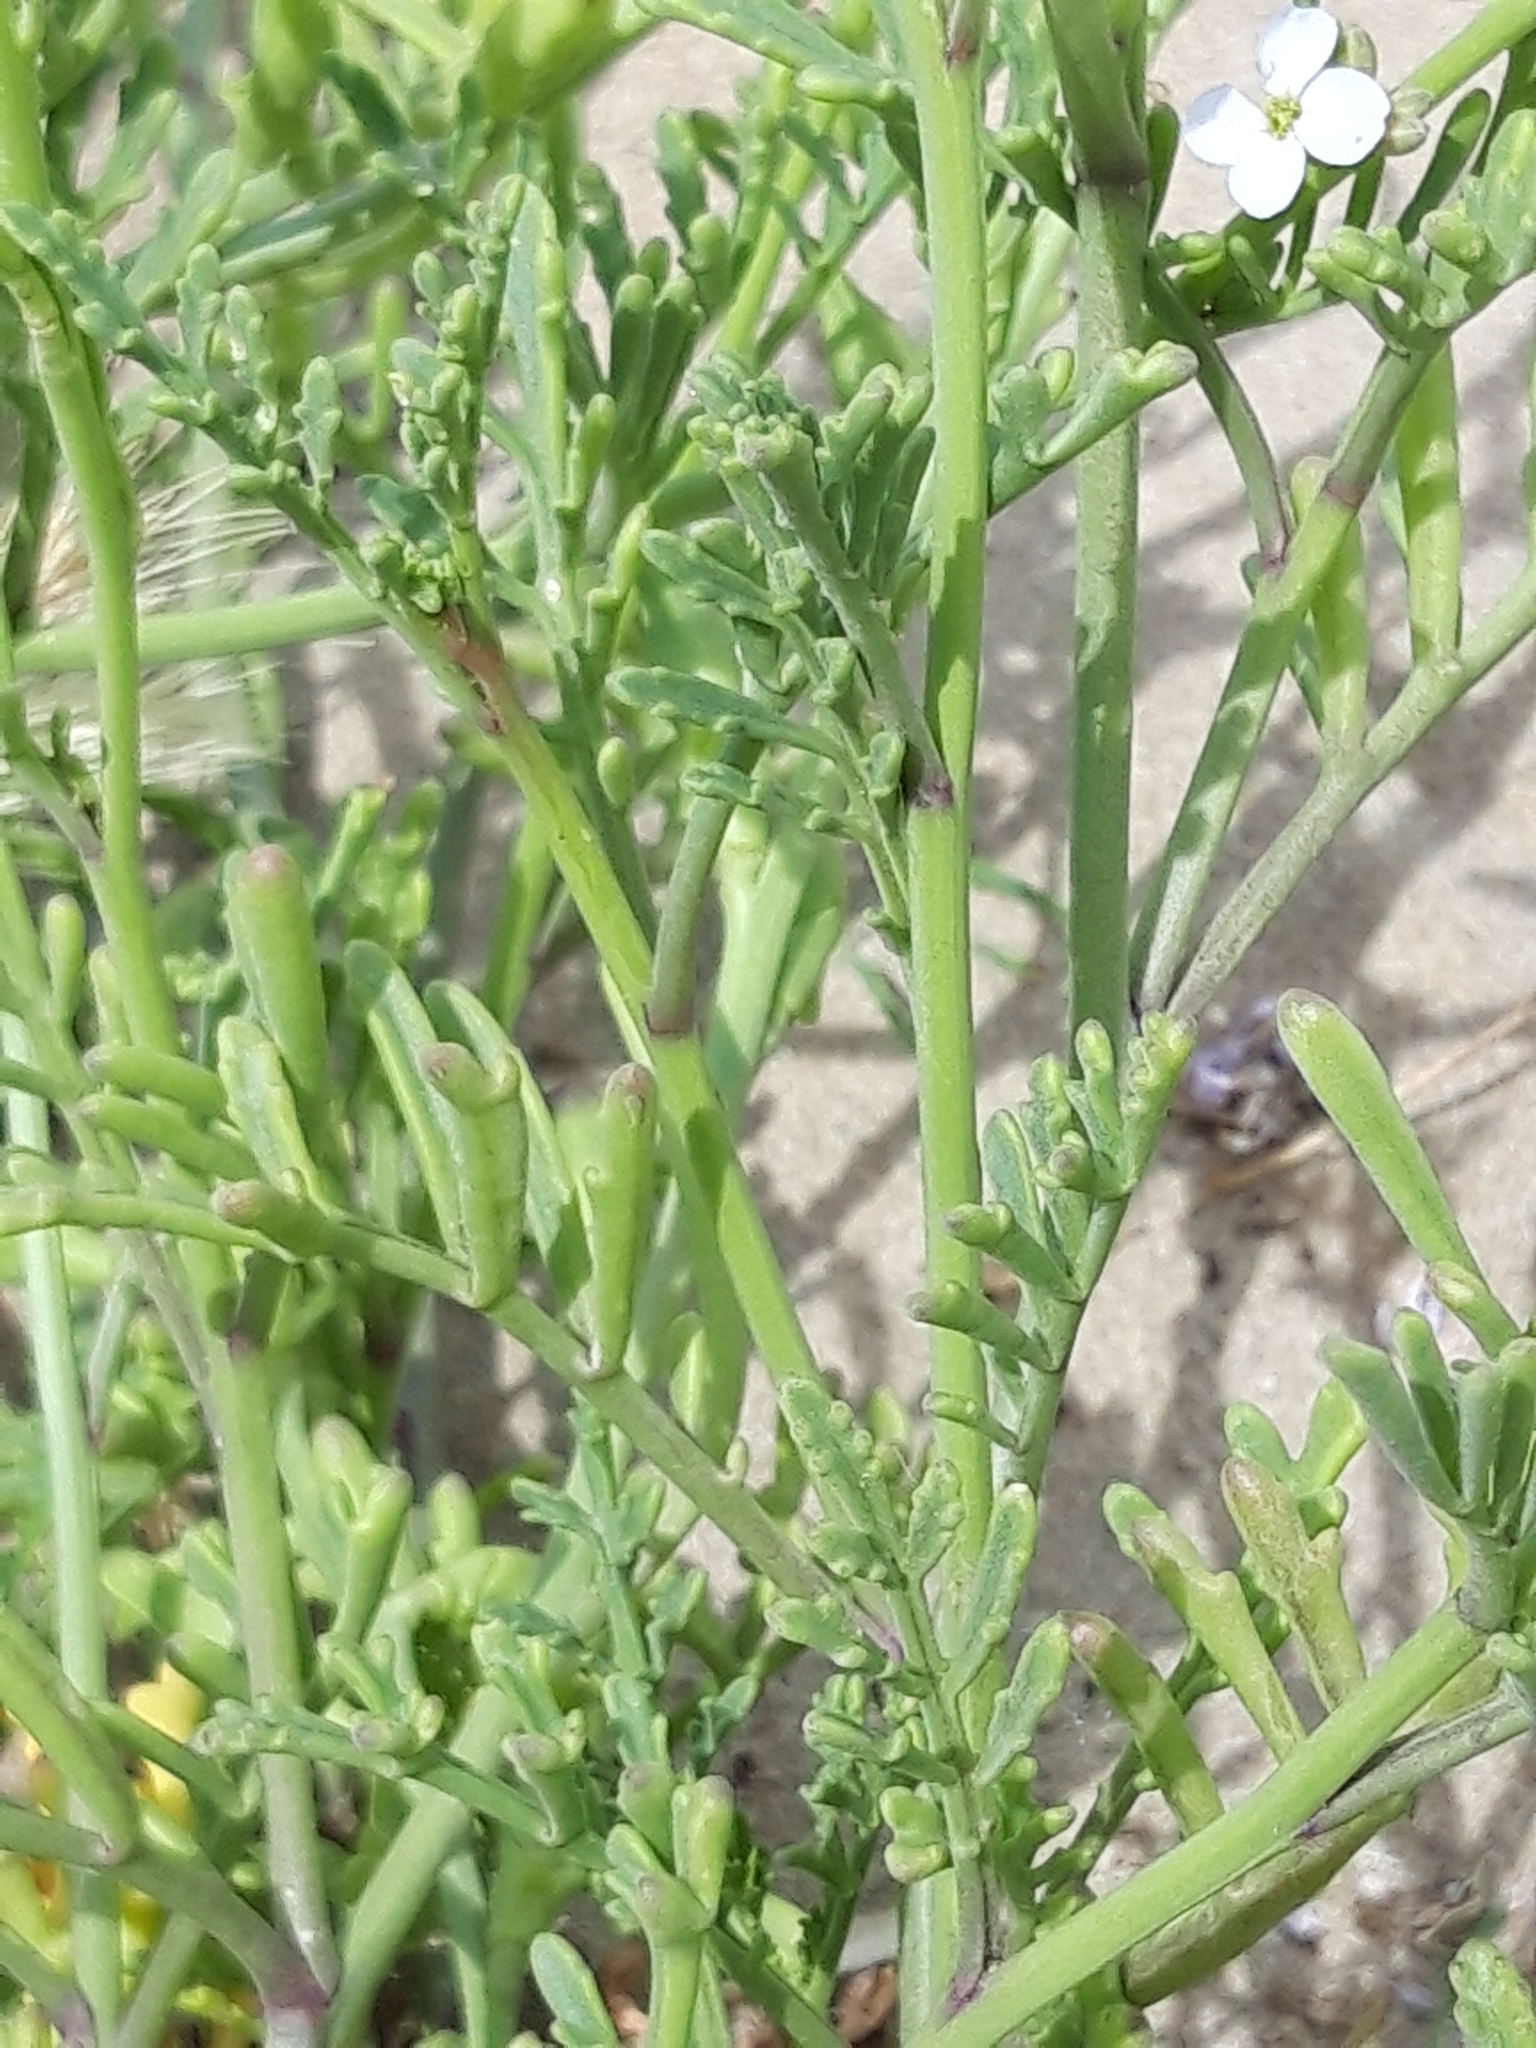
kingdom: Plantae
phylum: Tracheophyta
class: Magnoliopsida
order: Brassicales
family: Brassicaceae
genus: Cakile
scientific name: Cakile maritima
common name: Sea rocket
